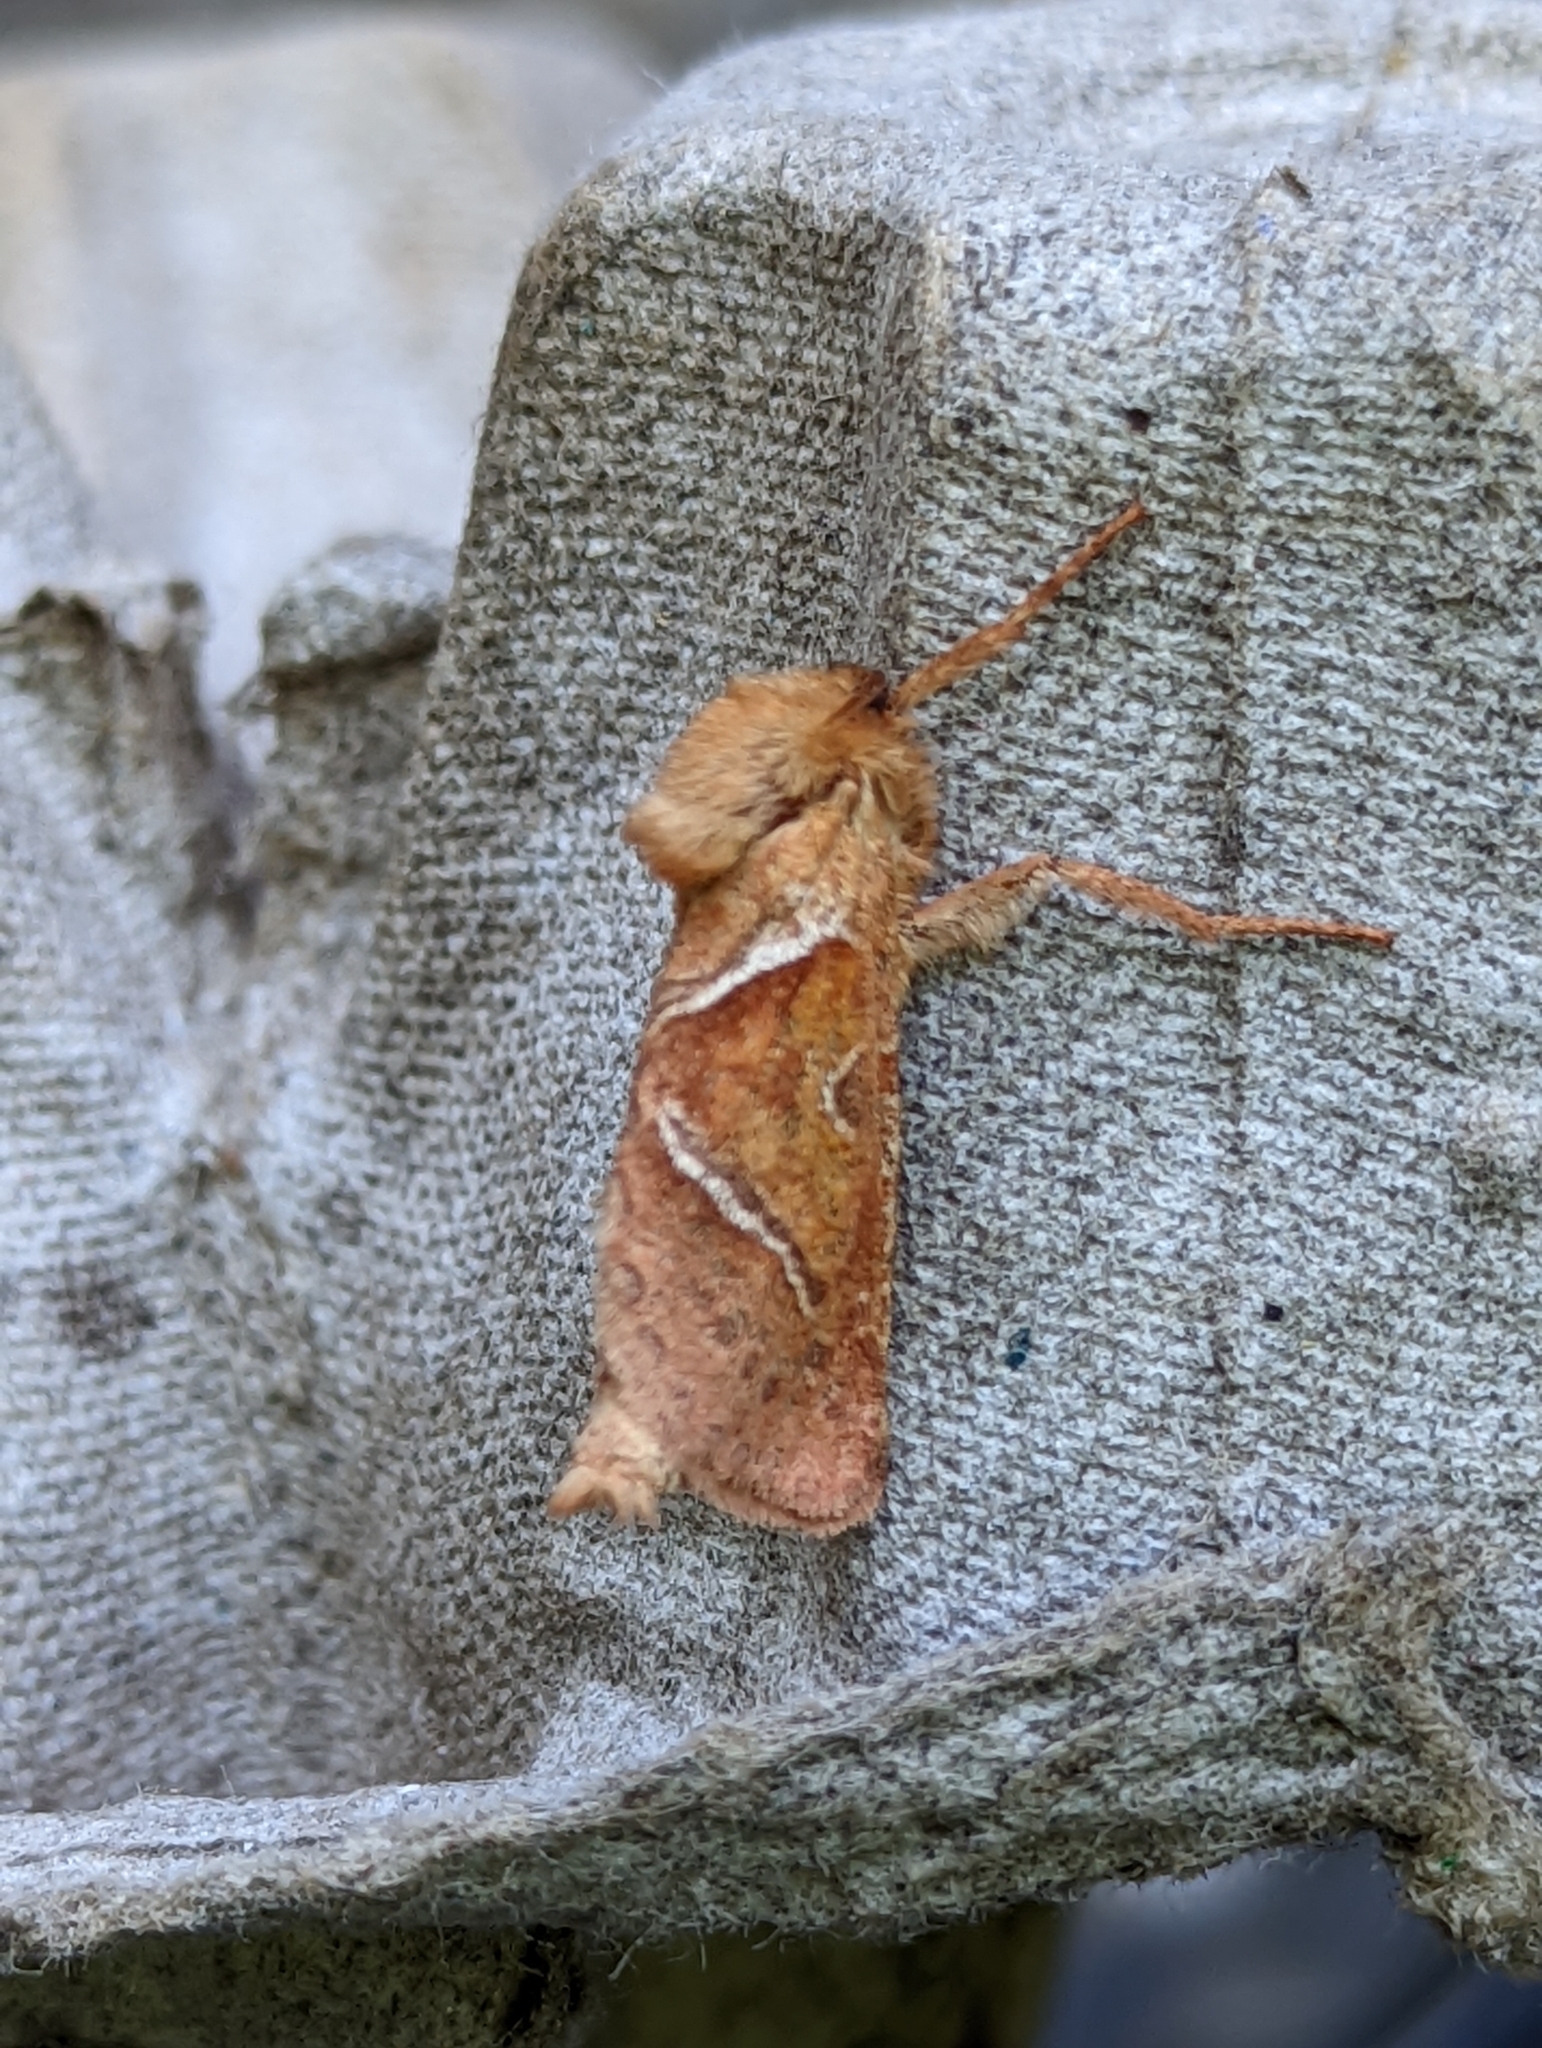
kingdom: Animalia
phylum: Arthropoda
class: Insecta
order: Lepidoptera
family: Hepialidae
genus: Triodia
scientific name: Triodia sylvina
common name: Orange swift
